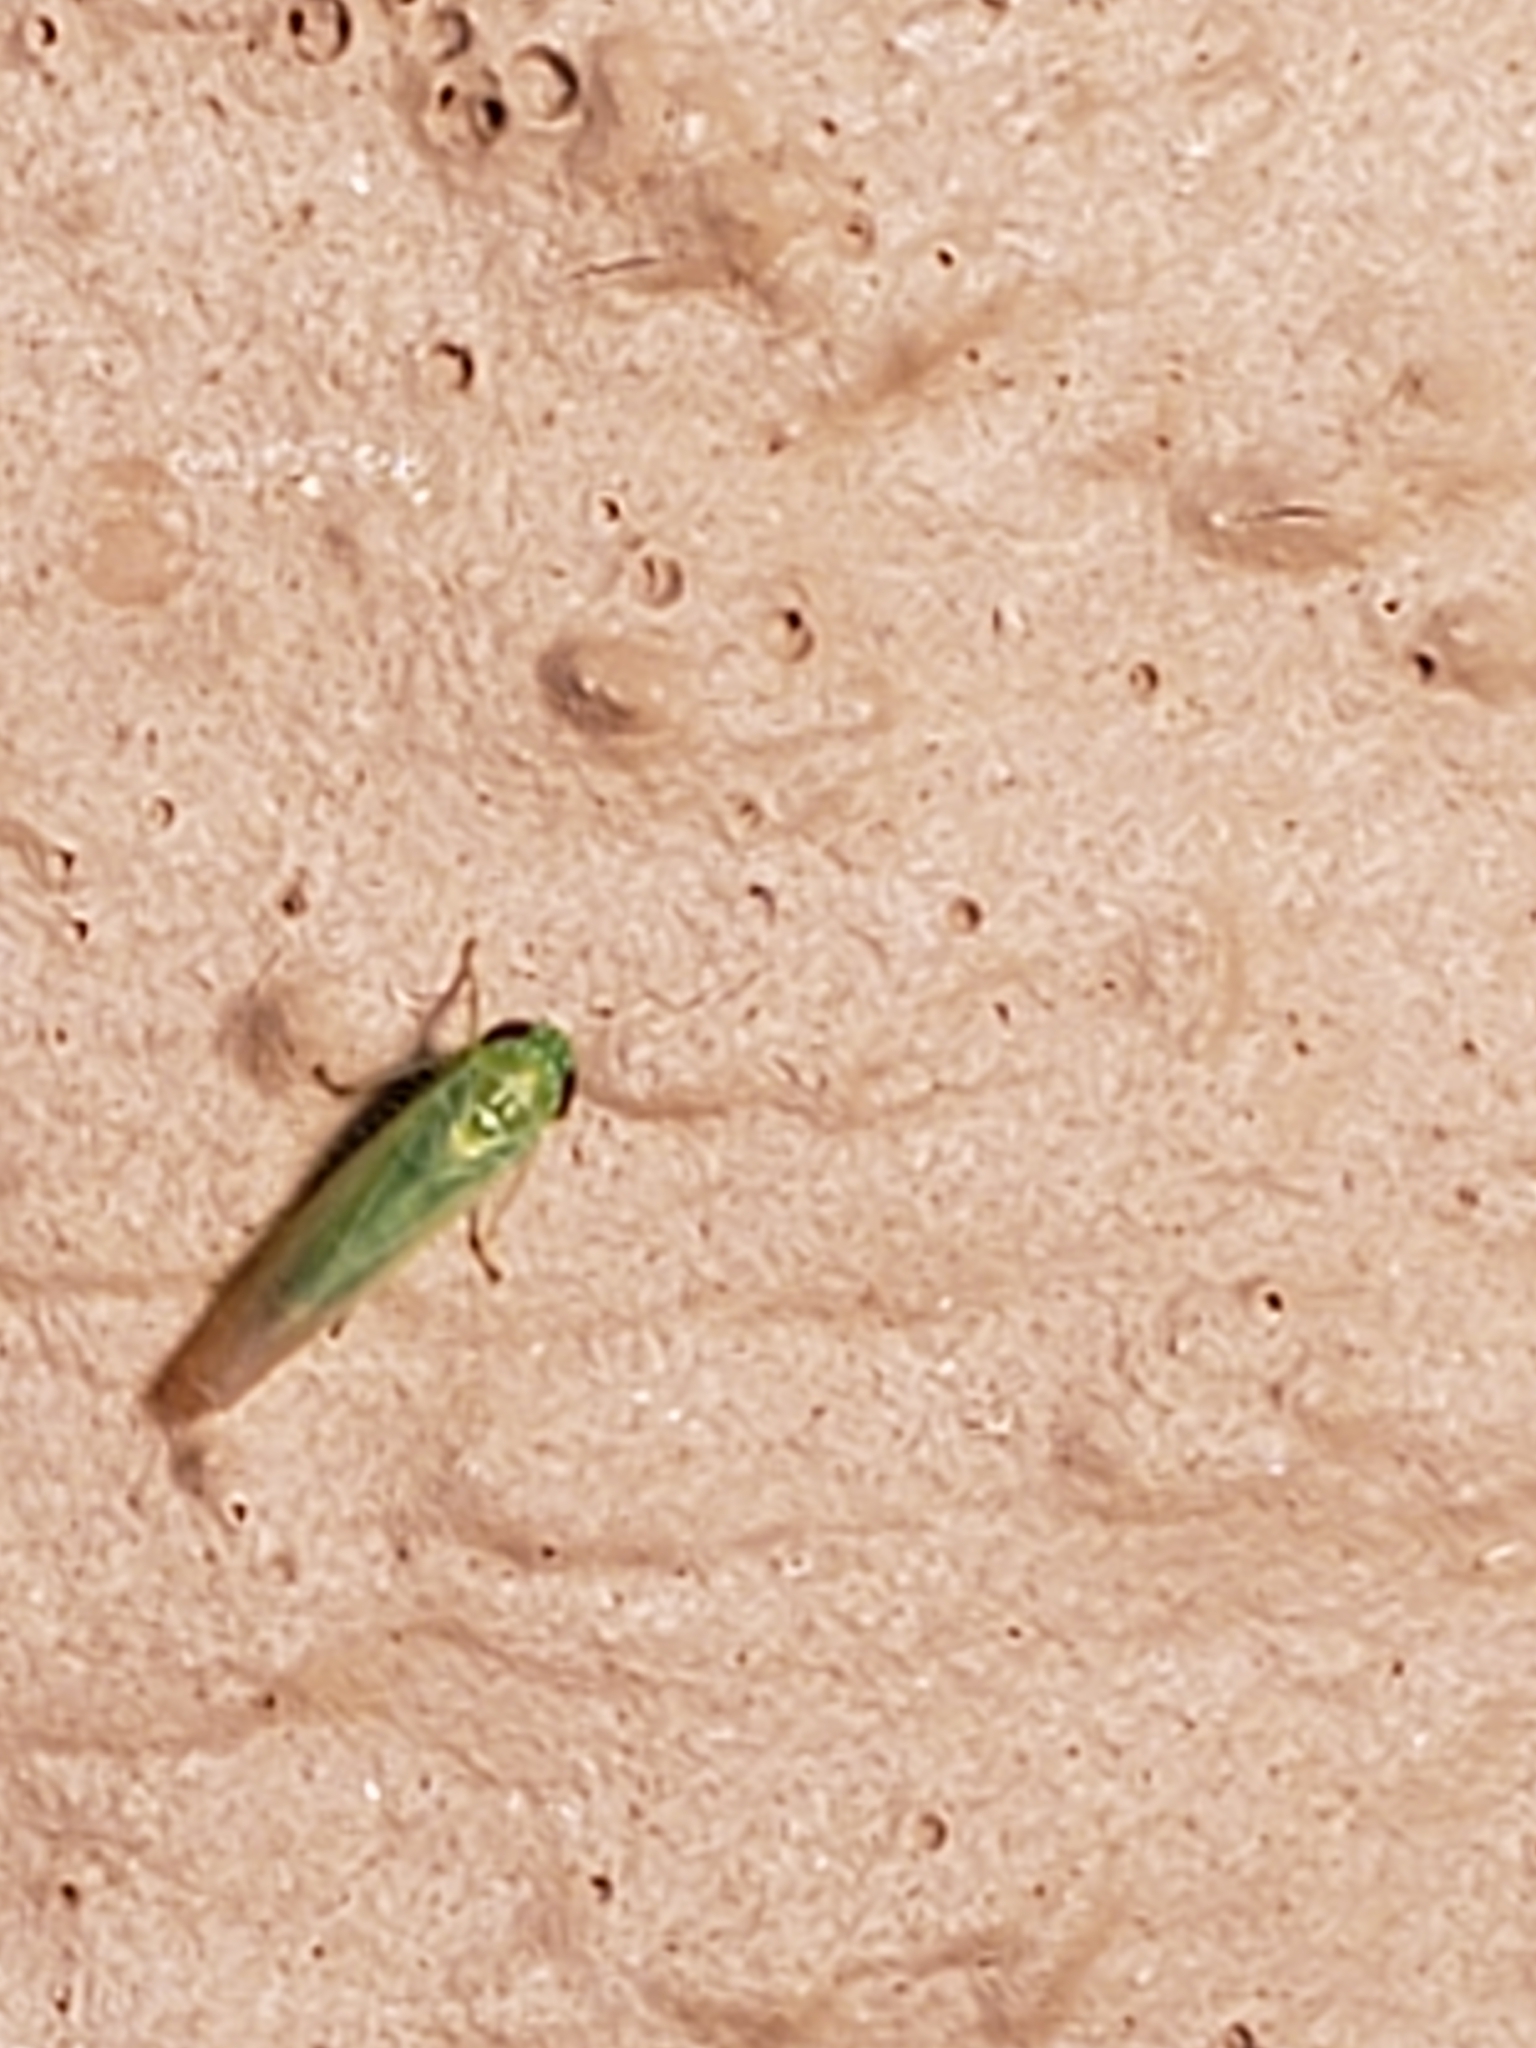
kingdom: Animalia
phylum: Arthropoda
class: Insecta
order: Hemiptera
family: Cicadellidae
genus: Empoasca
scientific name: Empoasca fabae
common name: Potato leafhopper
